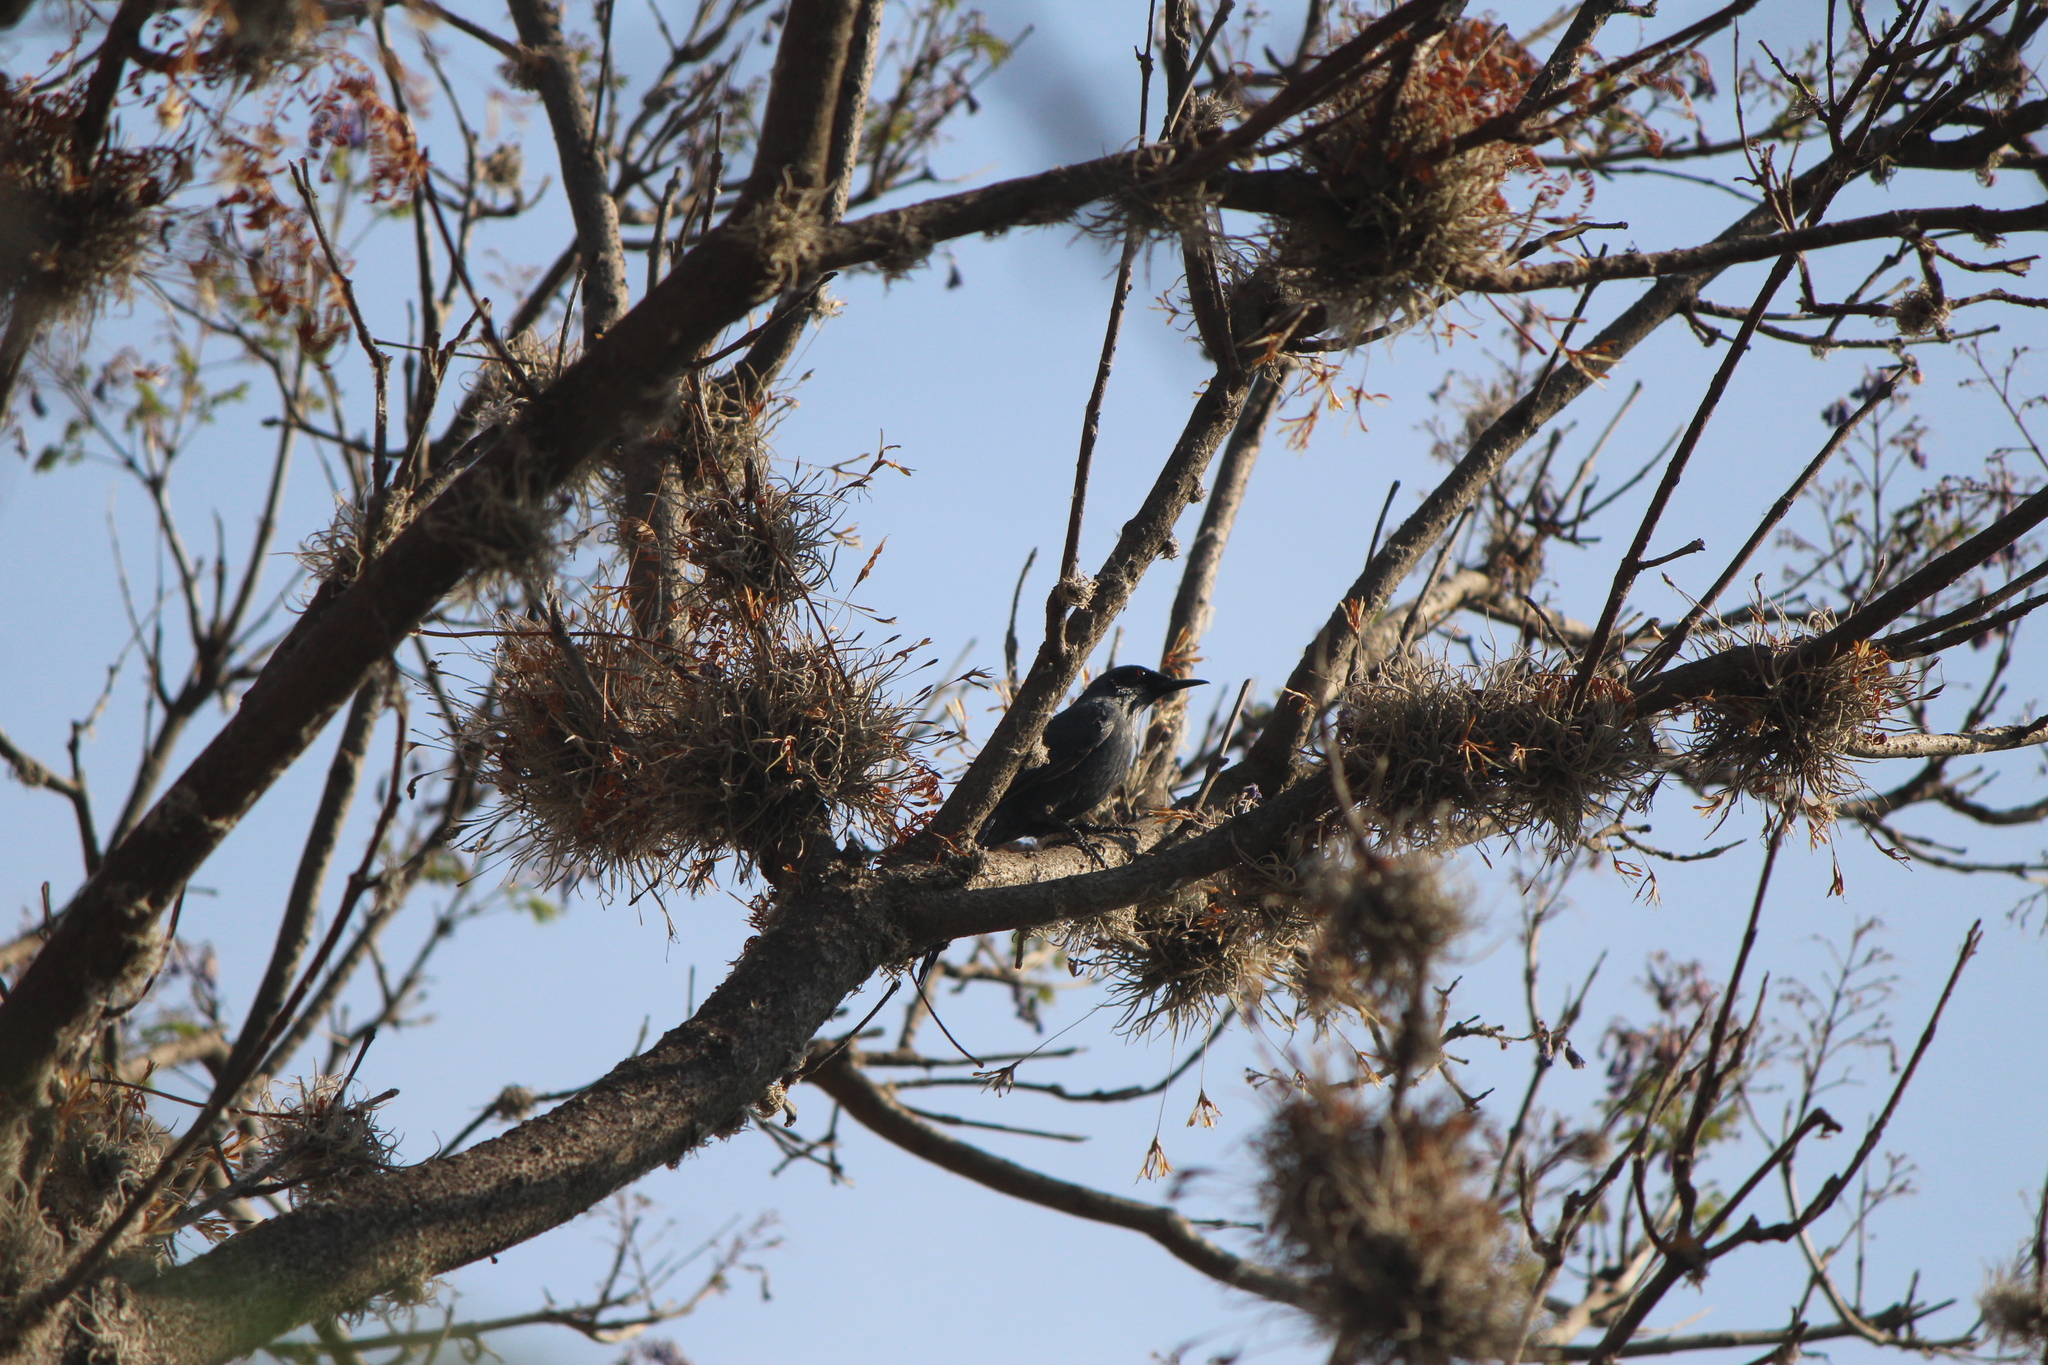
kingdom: Animalia
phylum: Chordata
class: Aves
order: Passeriformes
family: Mimidae
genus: Melanotis
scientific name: Melanotis caerulescens
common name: Blue mockingbird
